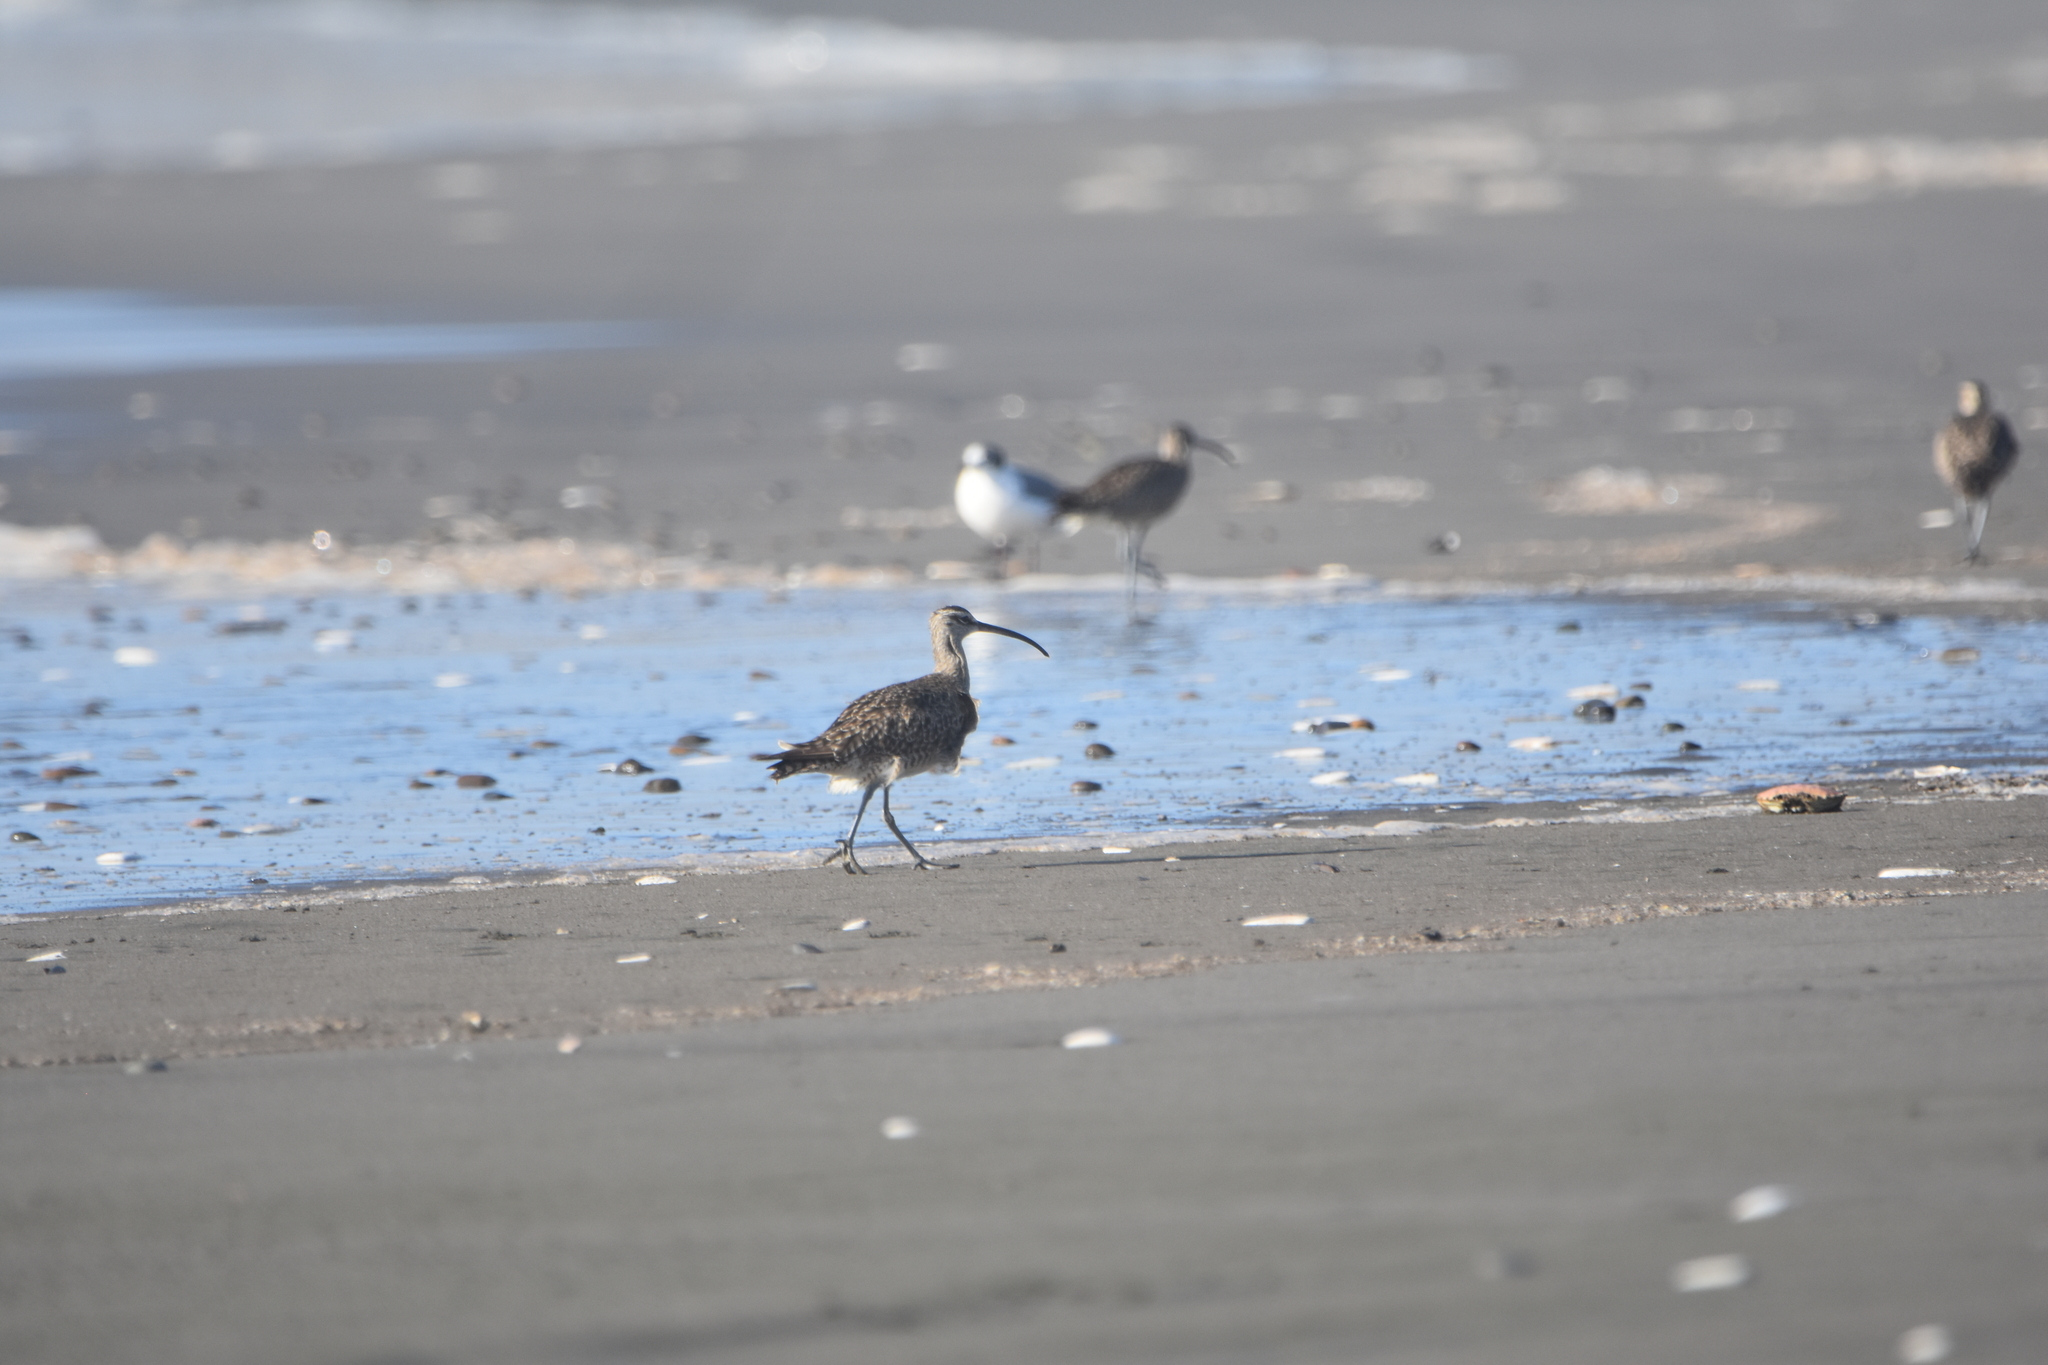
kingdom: Animalia
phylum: Chordata
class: Aves
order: Charadriiformes
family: Scolopacidae
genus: Numenius
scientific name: Numenius phaeopus
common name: Whimbrel
